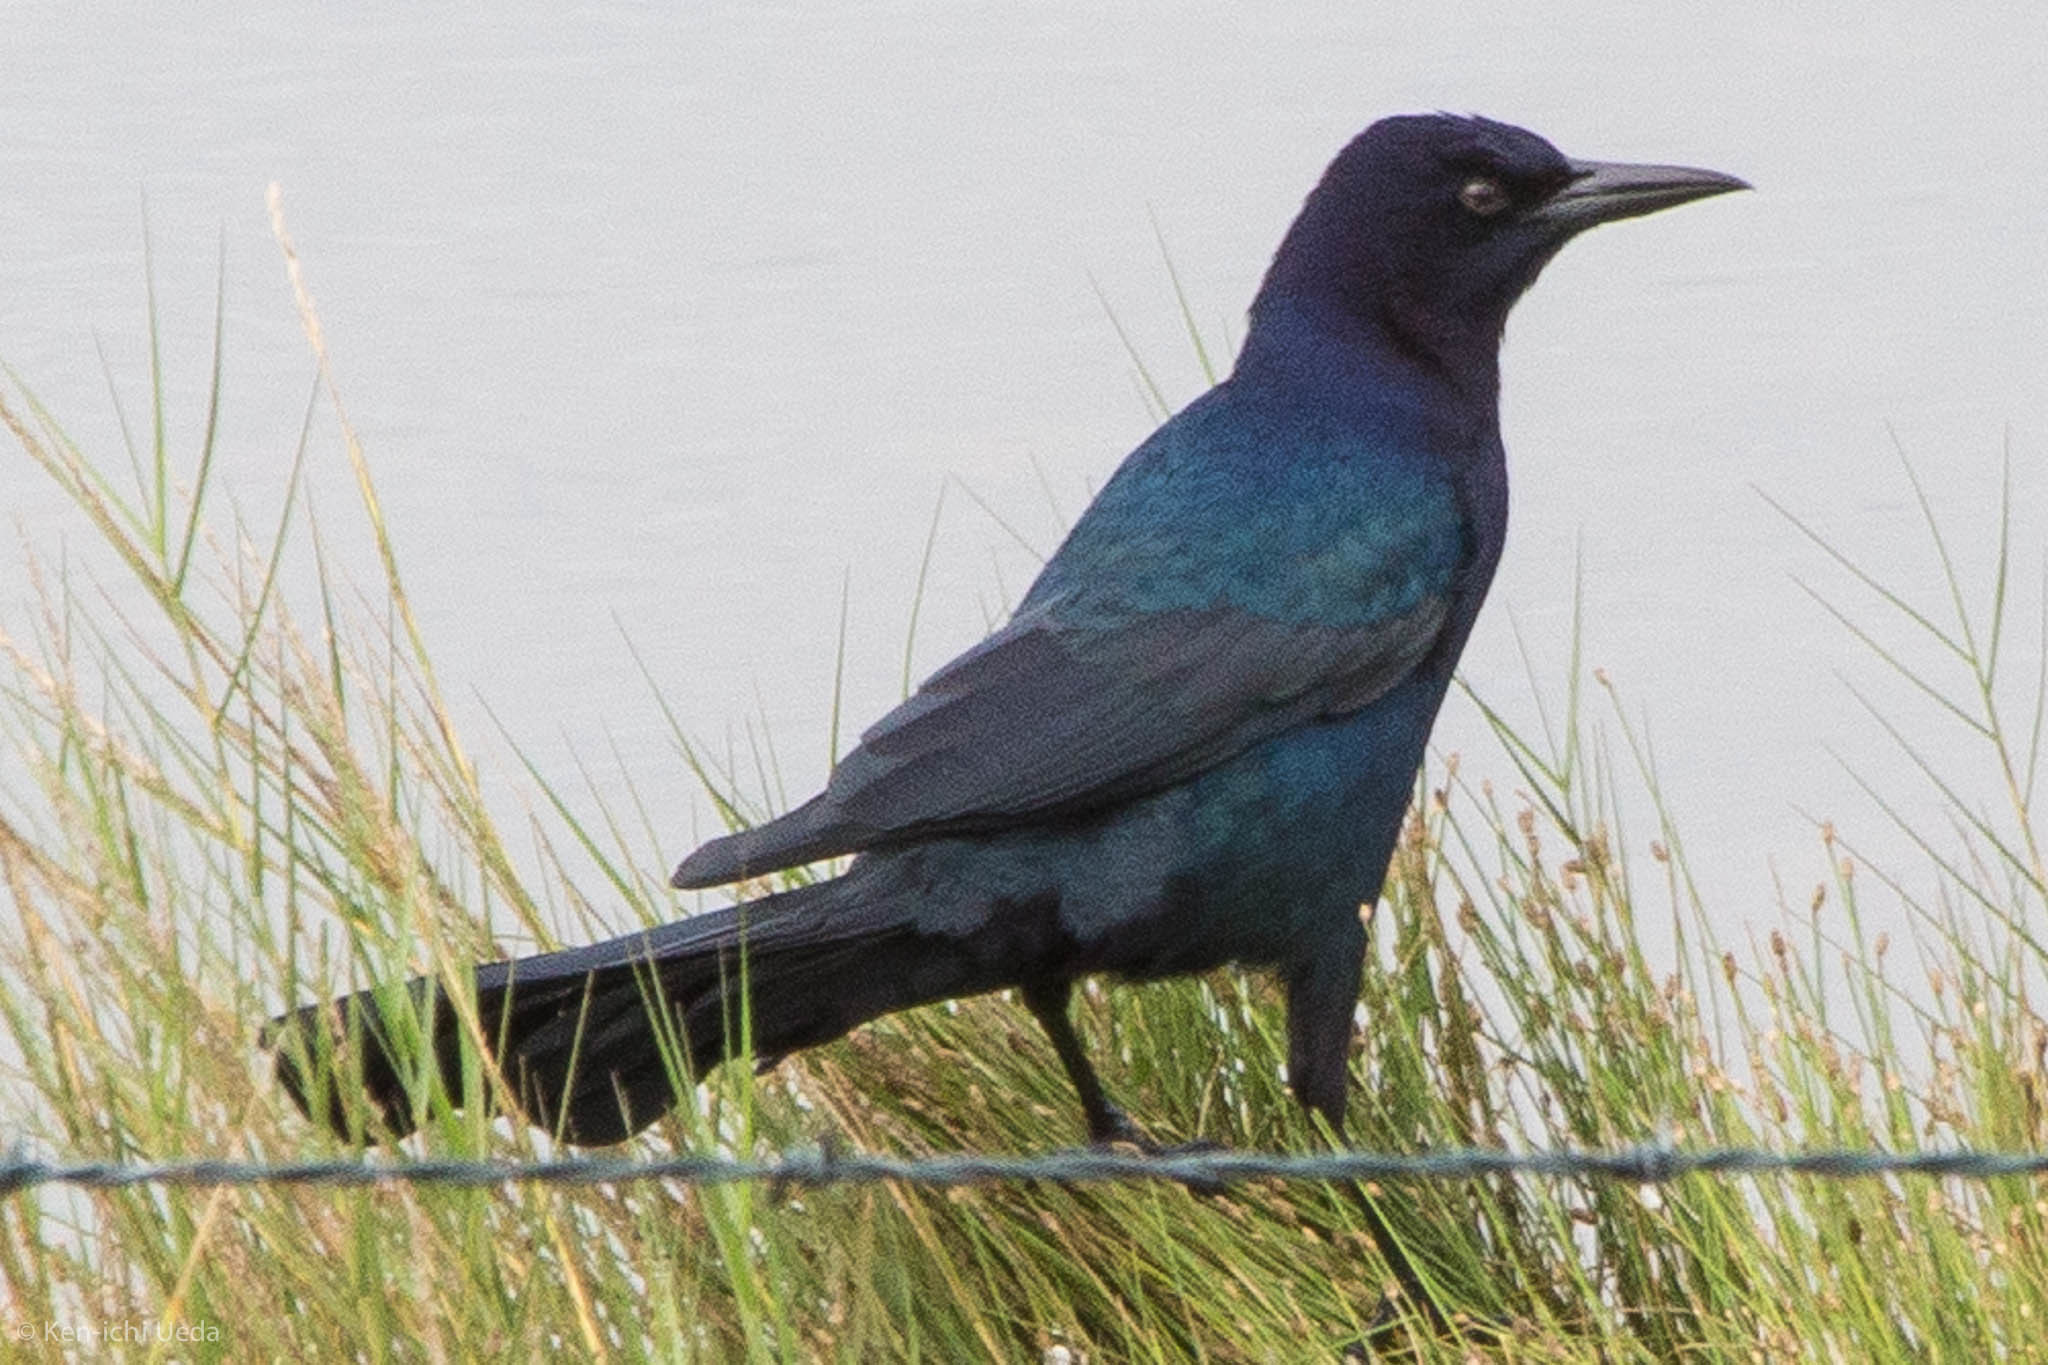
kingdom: Animalia
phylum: Chordata
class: Aves
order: Passeriformes
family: Icteridae
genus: Quiscalus
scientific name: Quiscalus major
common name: Boat-tailed grackle
